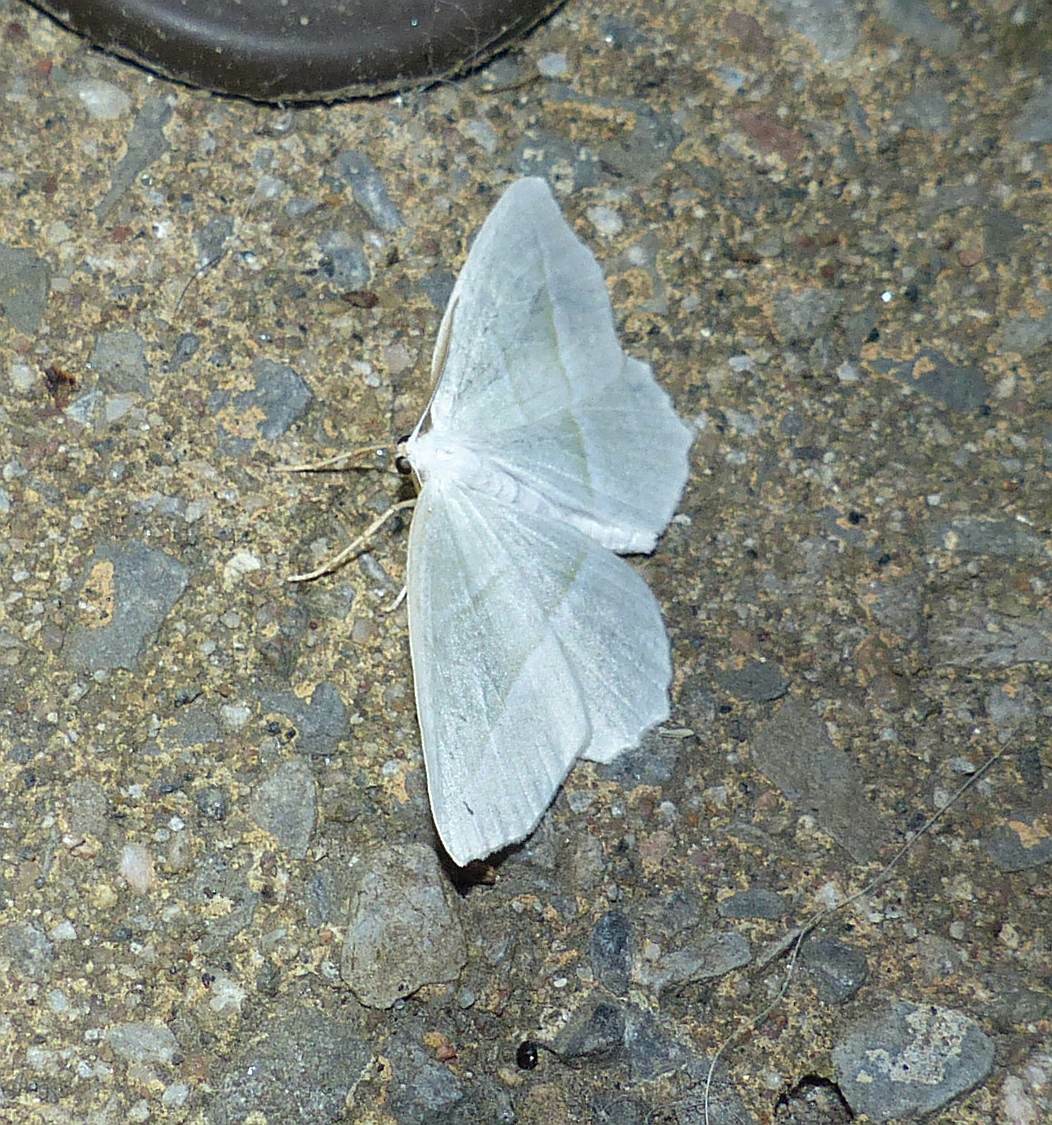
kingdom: Animalia
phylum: Arthropoda
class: Insecta
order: Lepidoptera
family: Geometridae
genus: Campaea
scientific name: Campaea perlata
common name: Fringed looper
